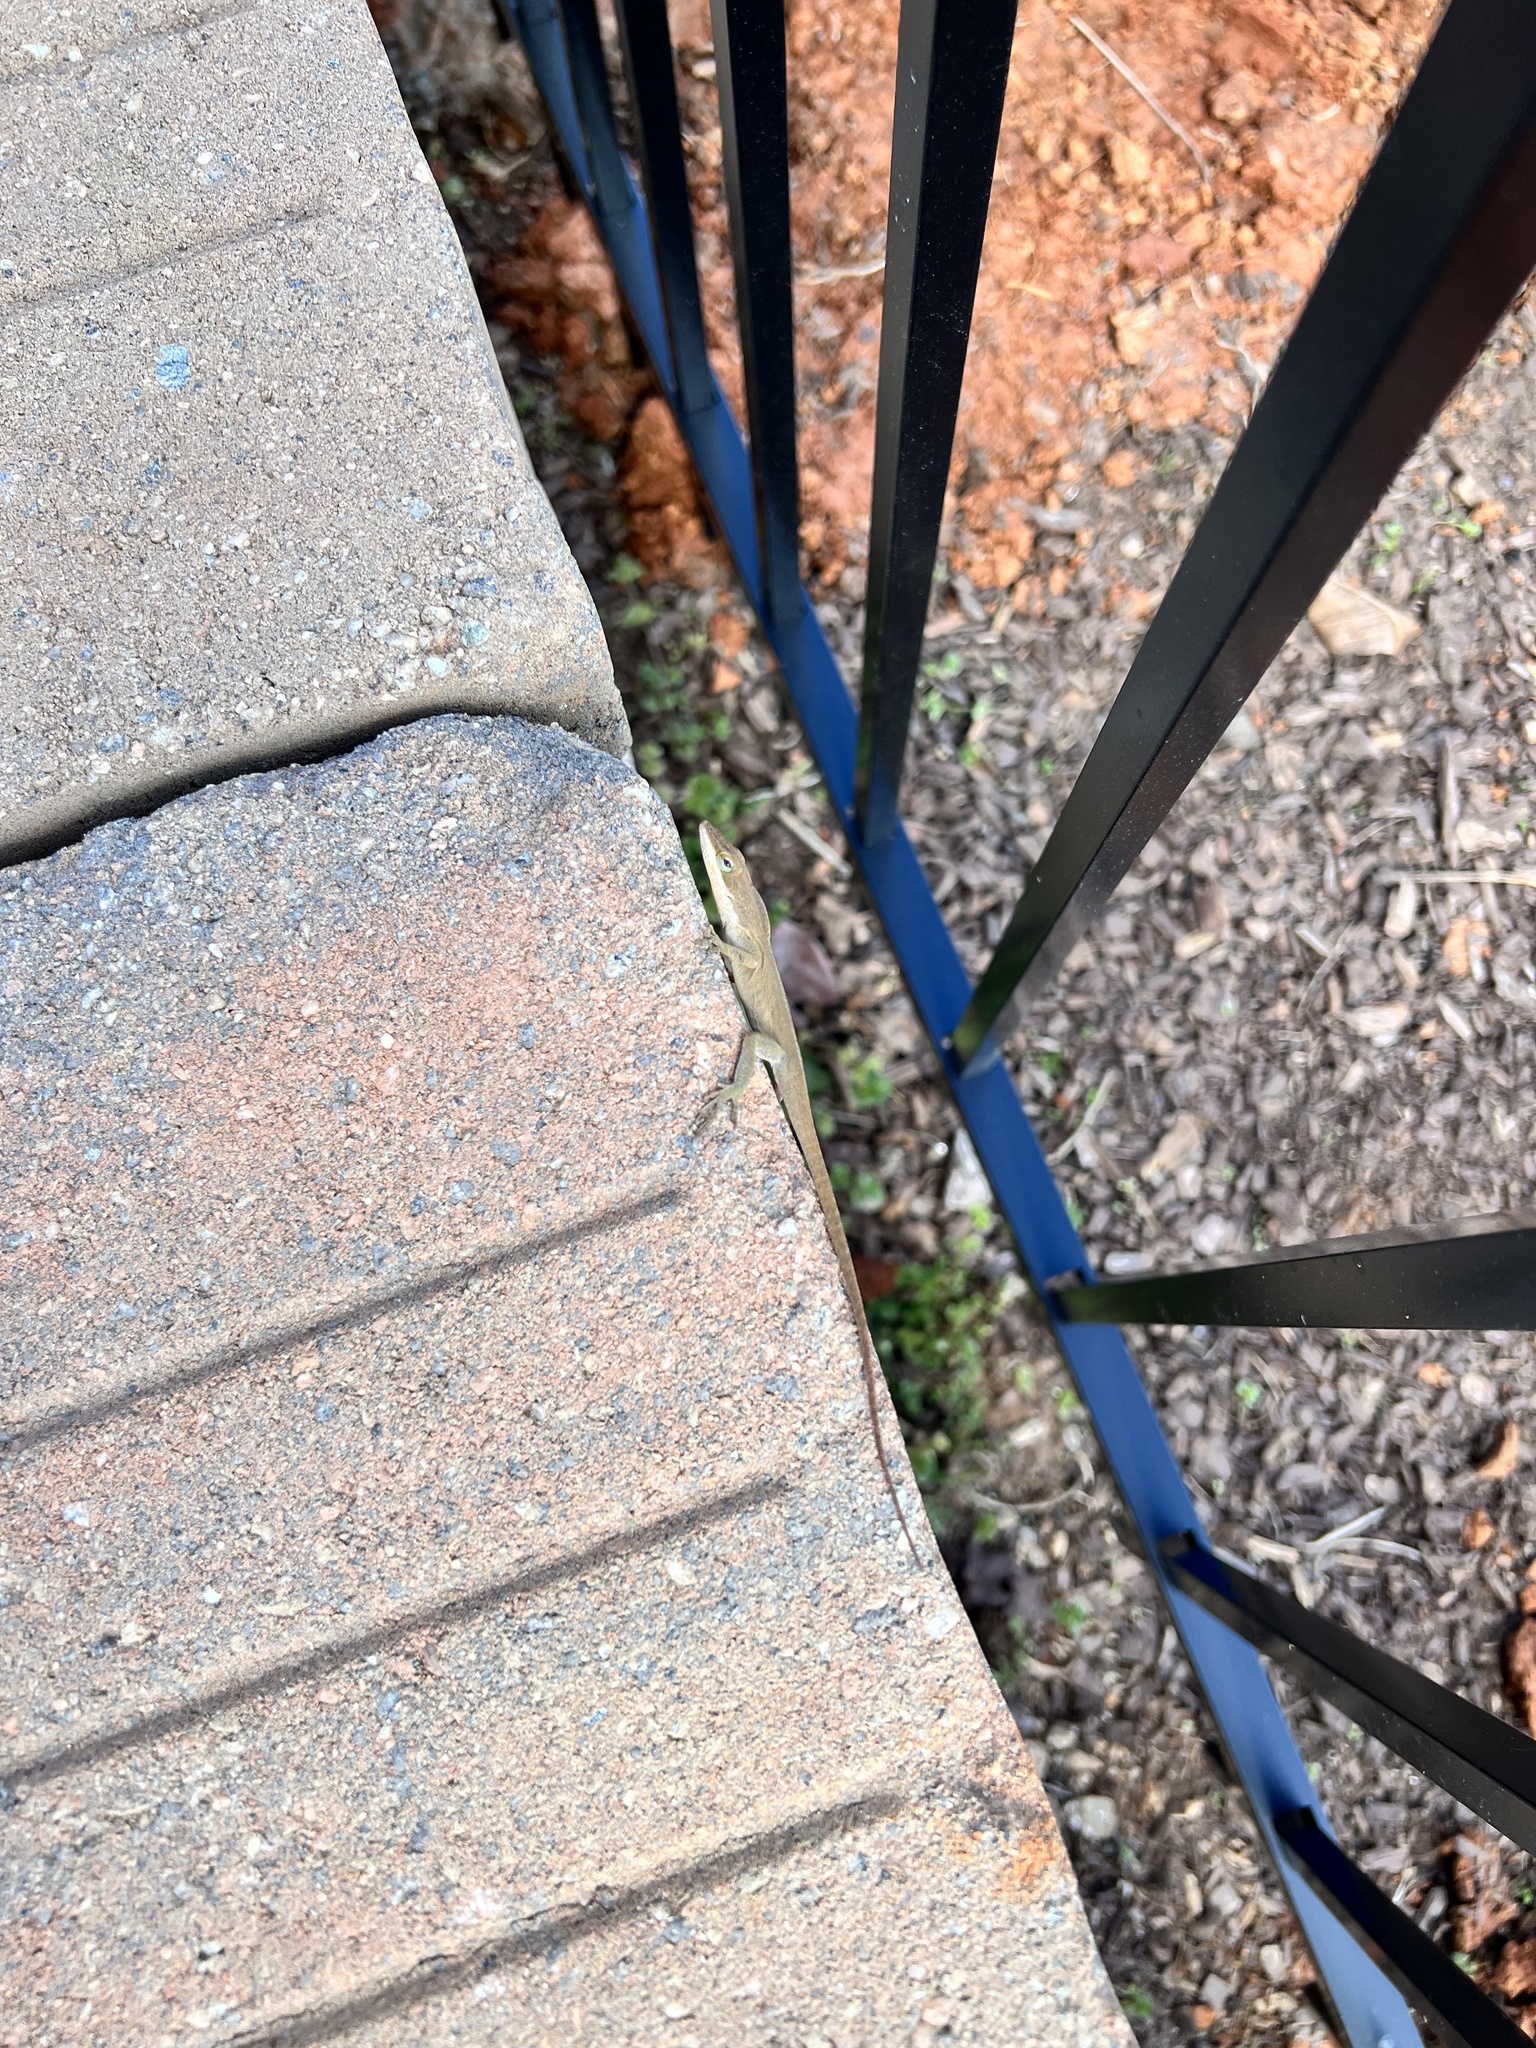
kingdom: Animalia
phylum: Chordata
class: Squamata
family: Dactyloidae
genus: Anolis
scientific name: Anolis carolinensis
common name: Green anole
